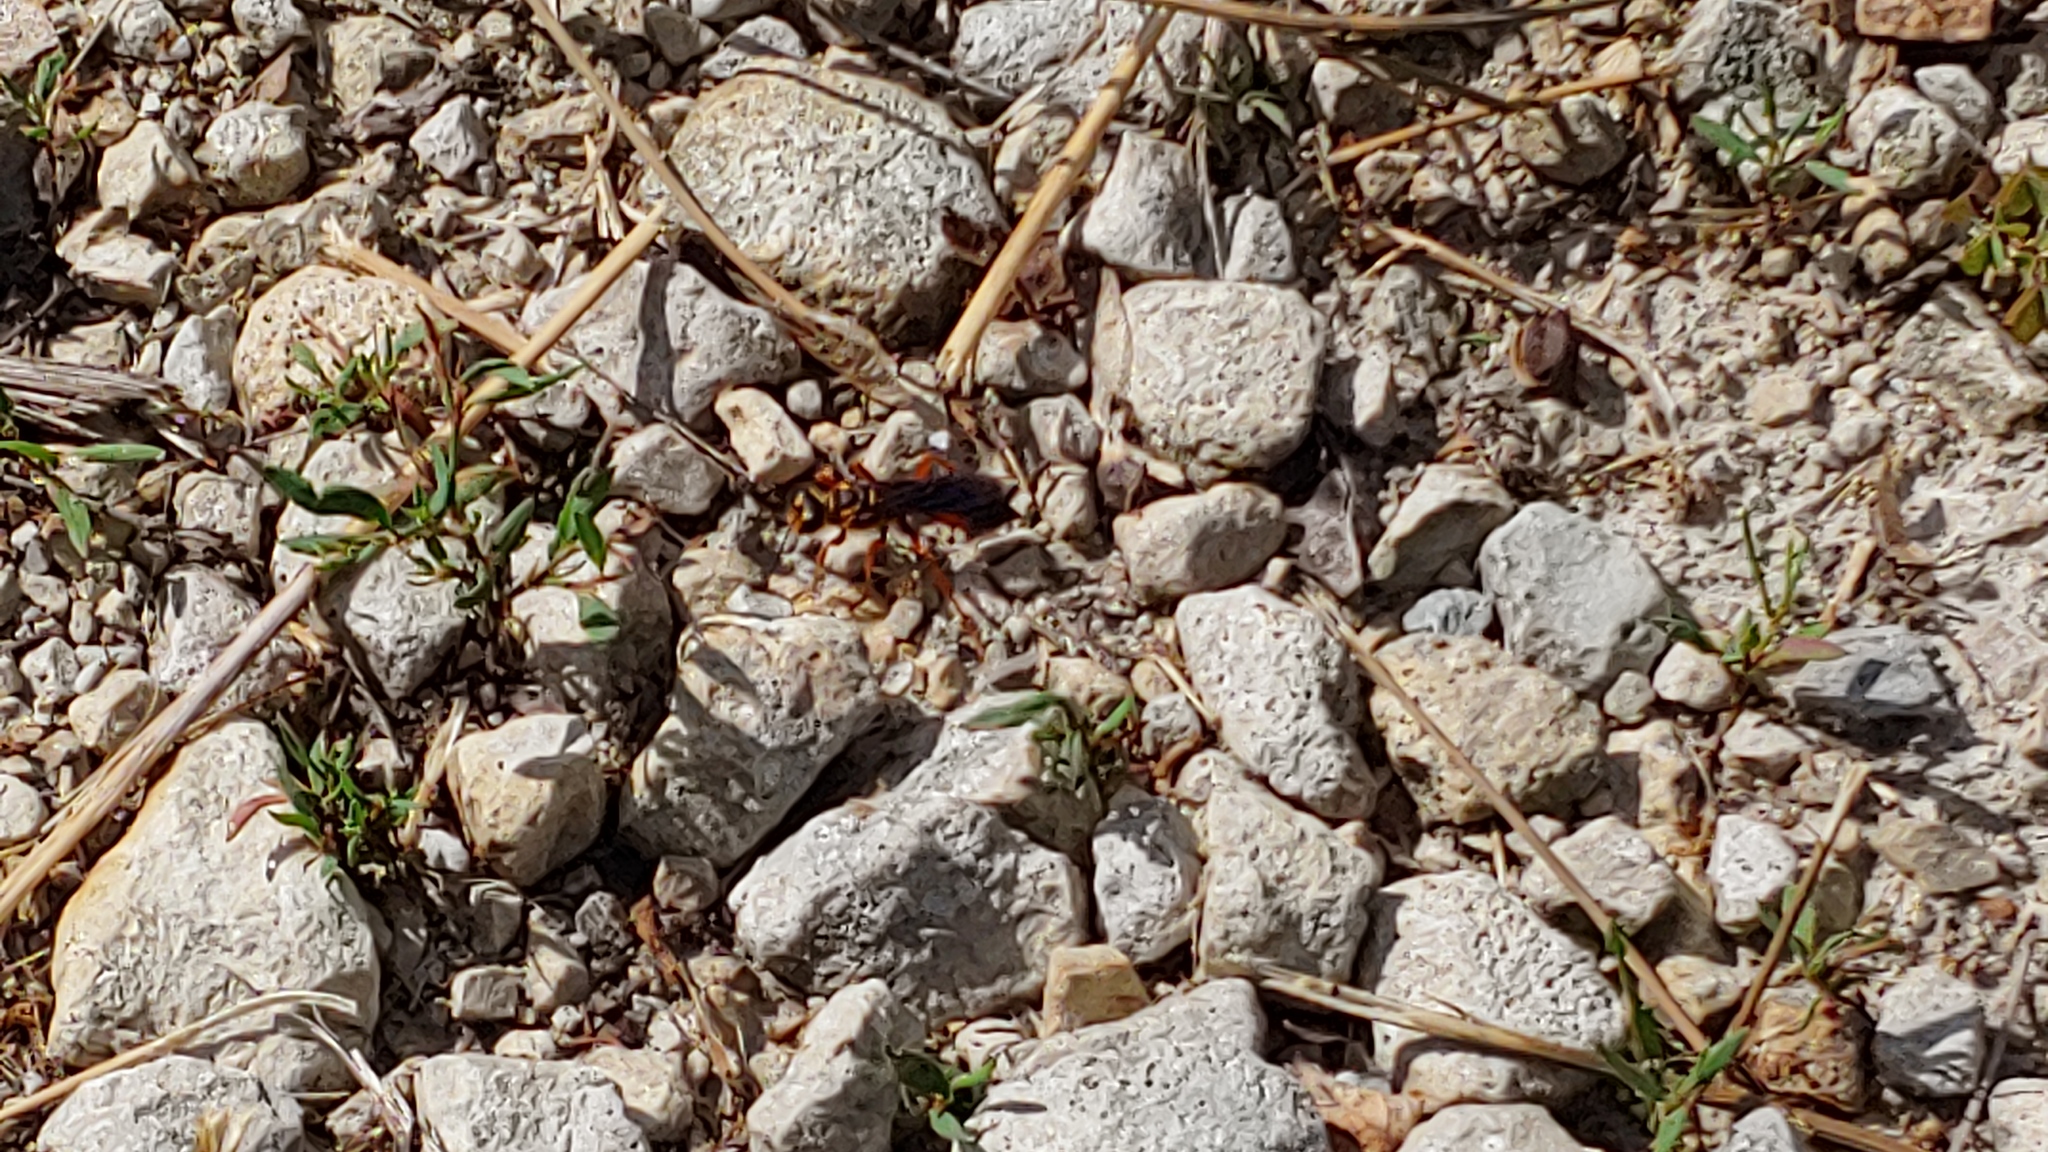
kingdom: Animalia
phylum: Arthropoda
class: Insecta
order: Hymenoptera
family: Sphecidae
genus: Sphex
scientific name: Sphex ichneumoneus
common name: Great golden digger wasp
